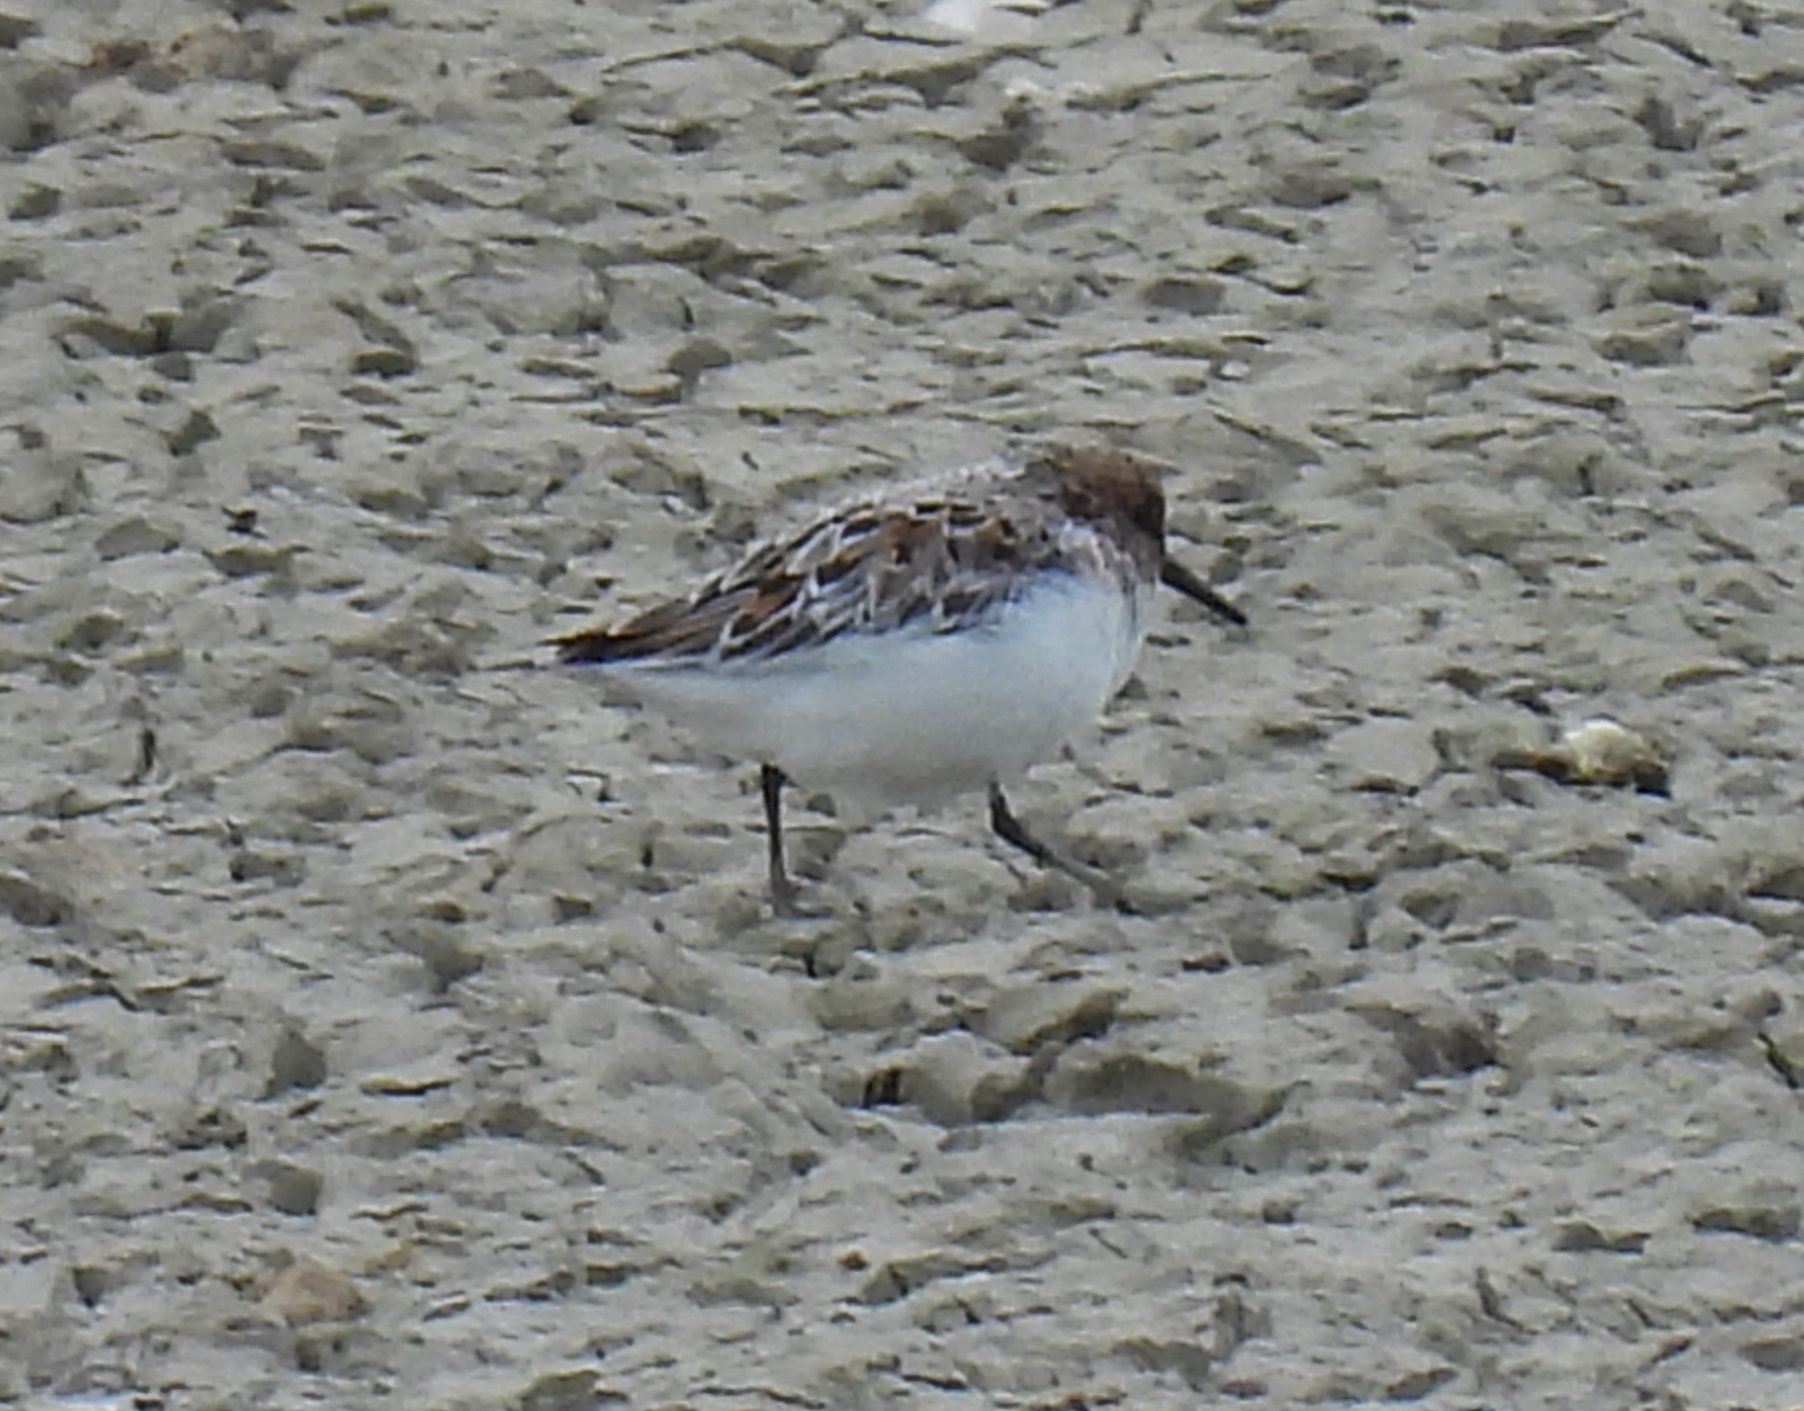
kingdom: Animalia
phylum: Chordata
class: Aves
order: Charadriiformes
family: Scolopacidae
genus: Calidris
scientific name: Calidris alba
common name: Sanderling
